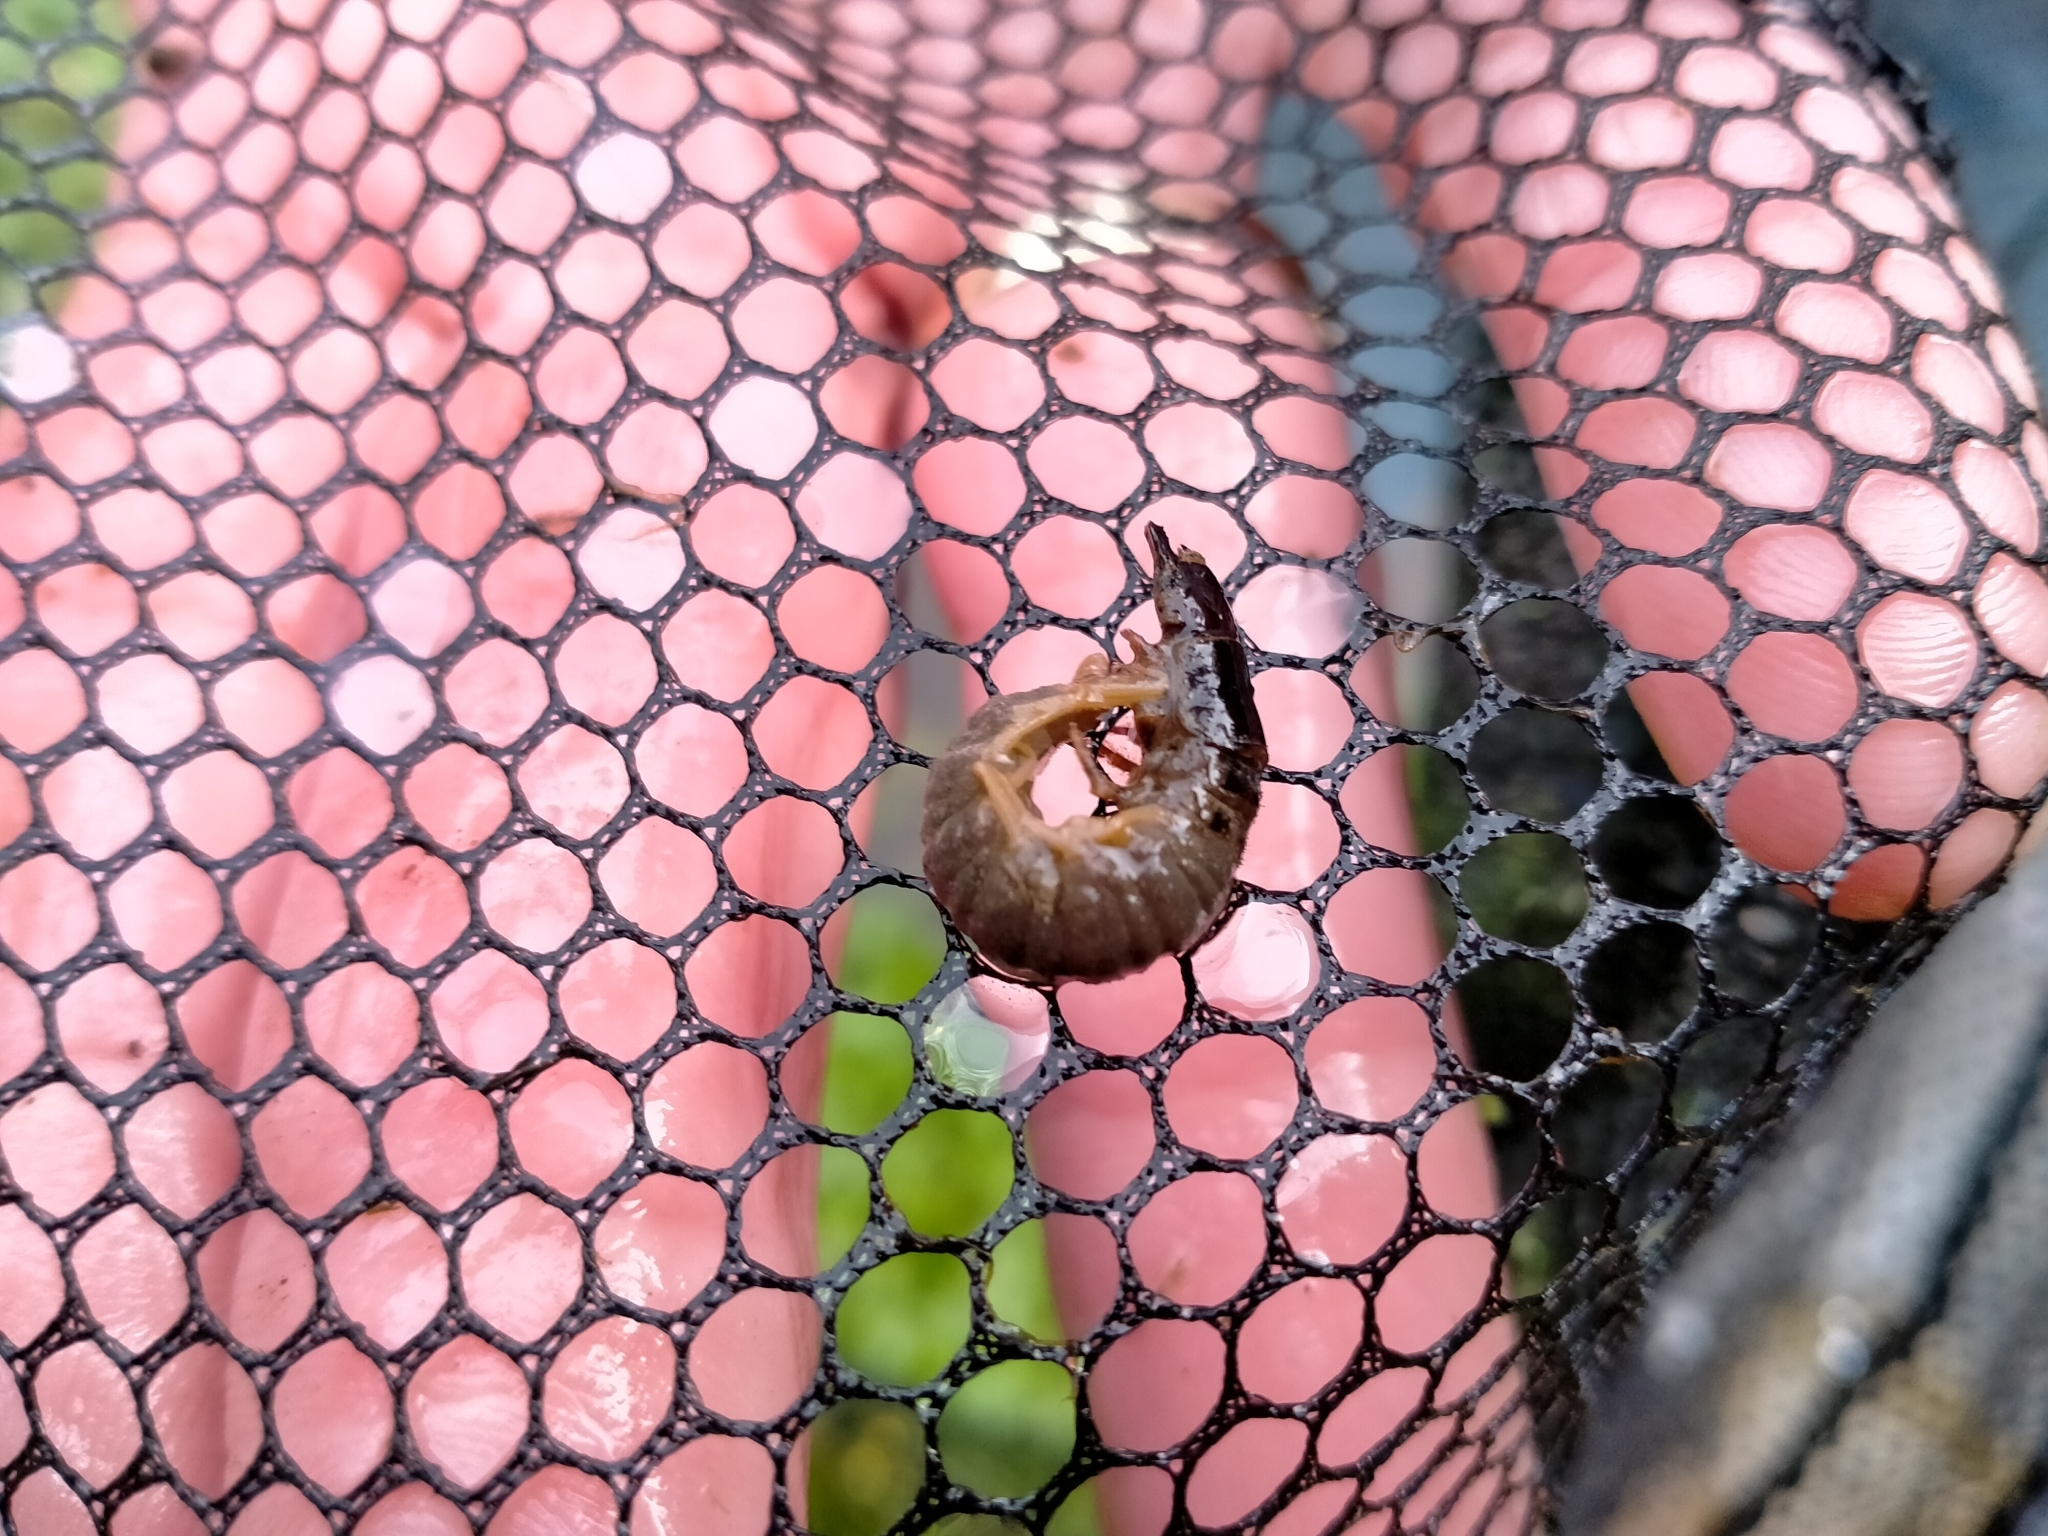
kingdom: Animalia
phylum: Arthropoda
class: Insecta
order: Megaloptera
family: Corydalidae
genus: Archichauliodes
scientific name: Archichauliodes diversus
